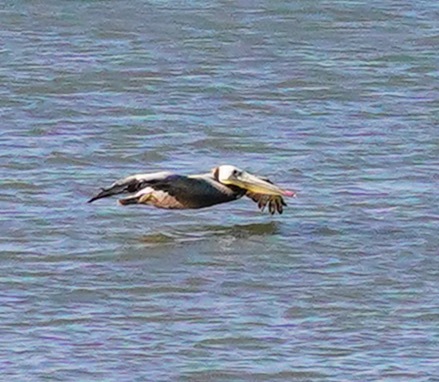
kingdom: Animalia
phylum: Chordata
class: Aves
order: Pelecaniformes
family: Pelecanidae
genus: Pelecanus
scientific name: Pelecanus occidentalis
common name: Brown pelican
